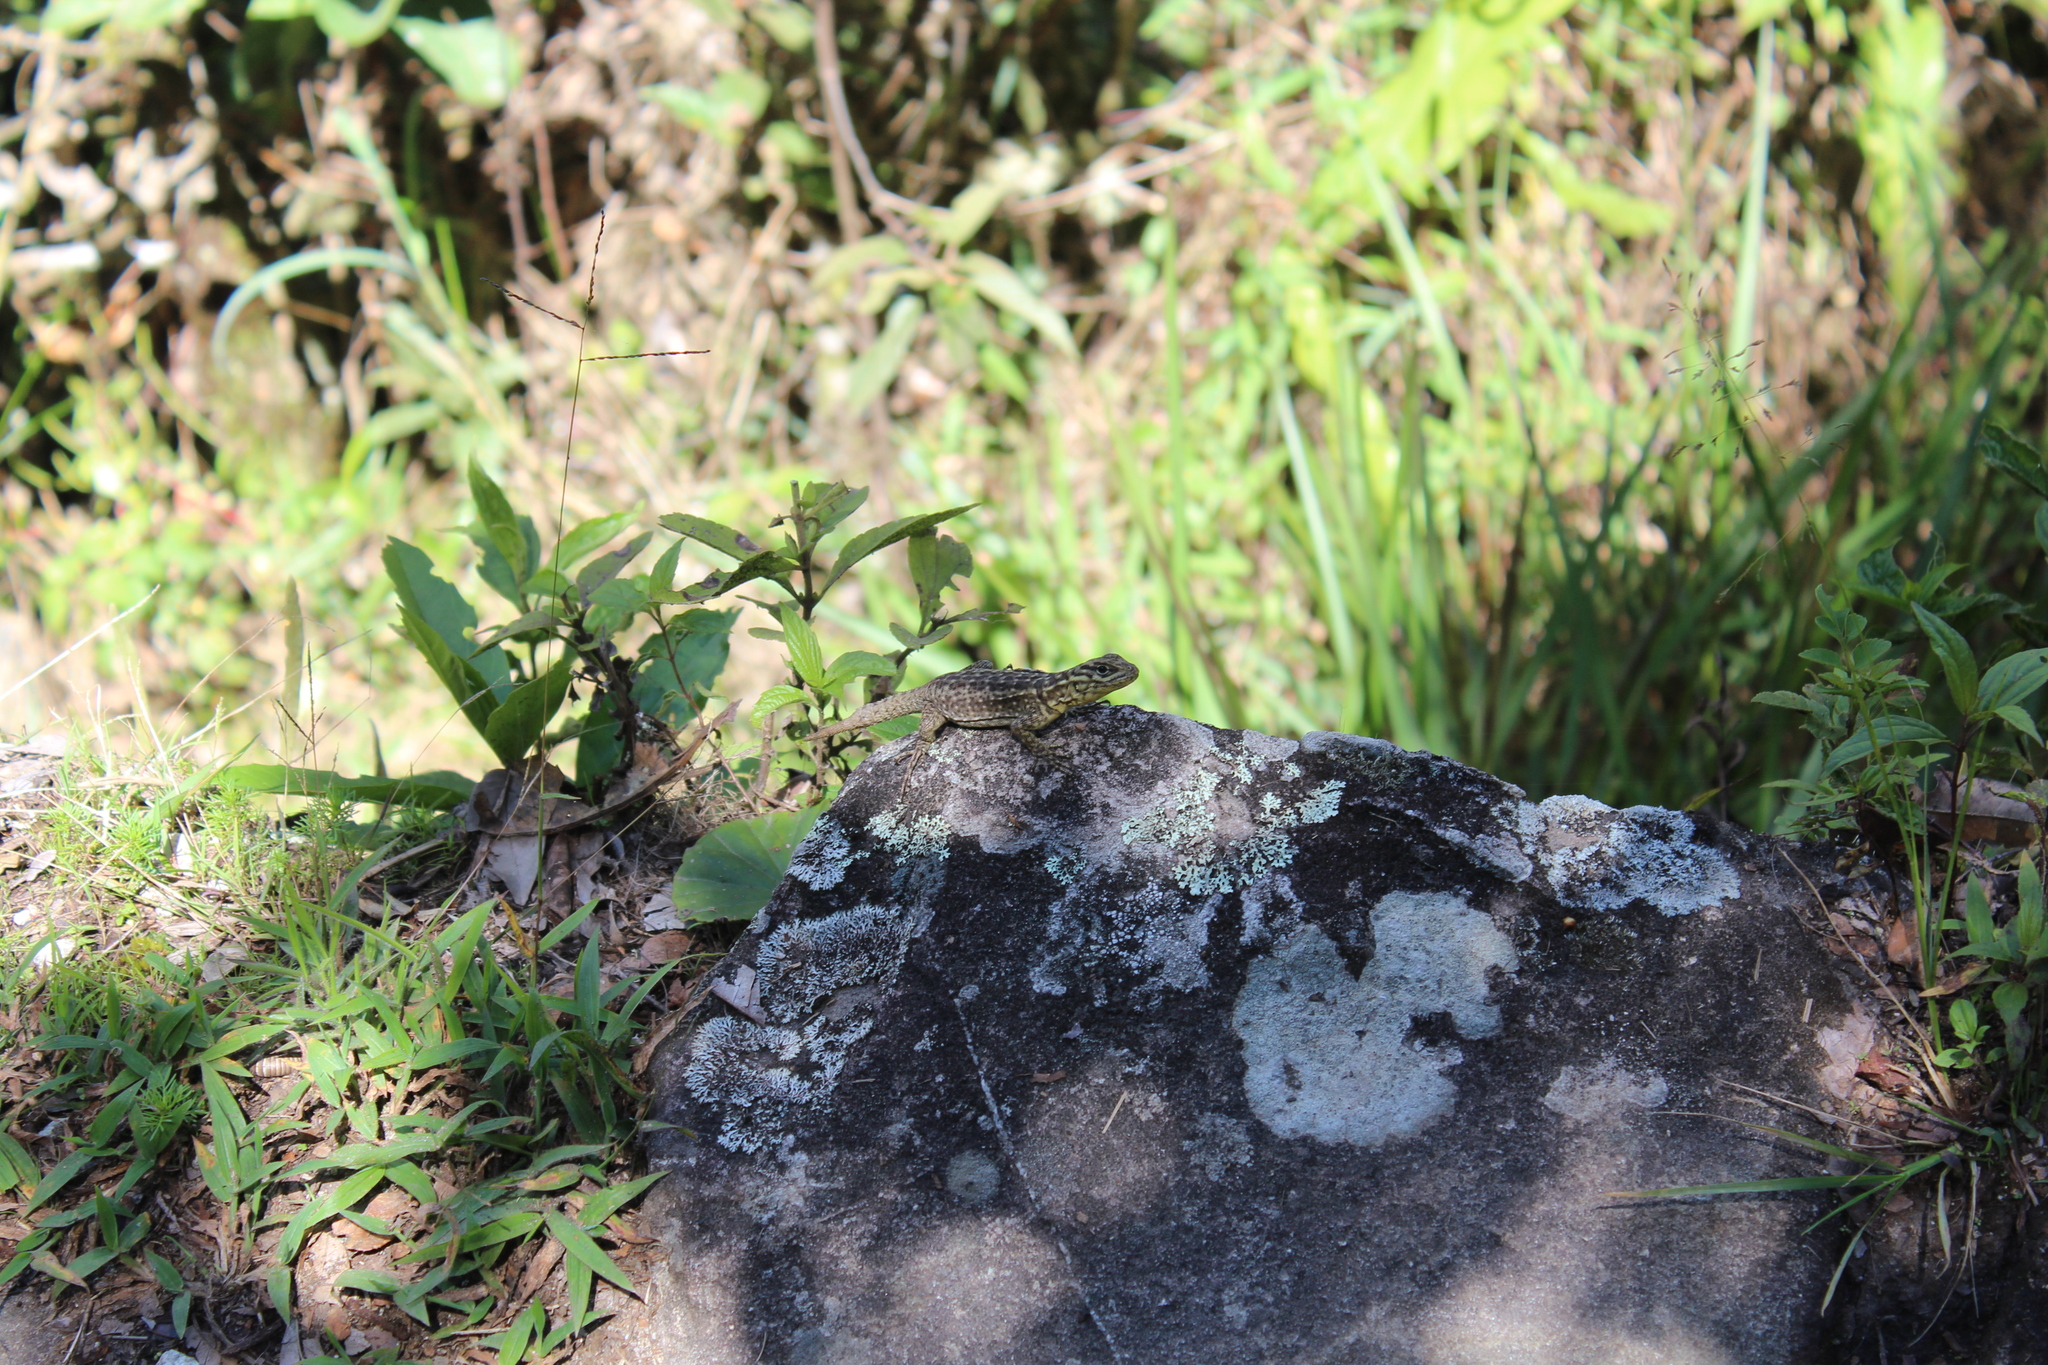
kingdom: Animalia
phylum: Chordata
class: Squamata
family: Tropiduridae
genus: Stenocercus
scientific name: Stenocercus crassicaudatus
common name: Spiny whorltail iguana
